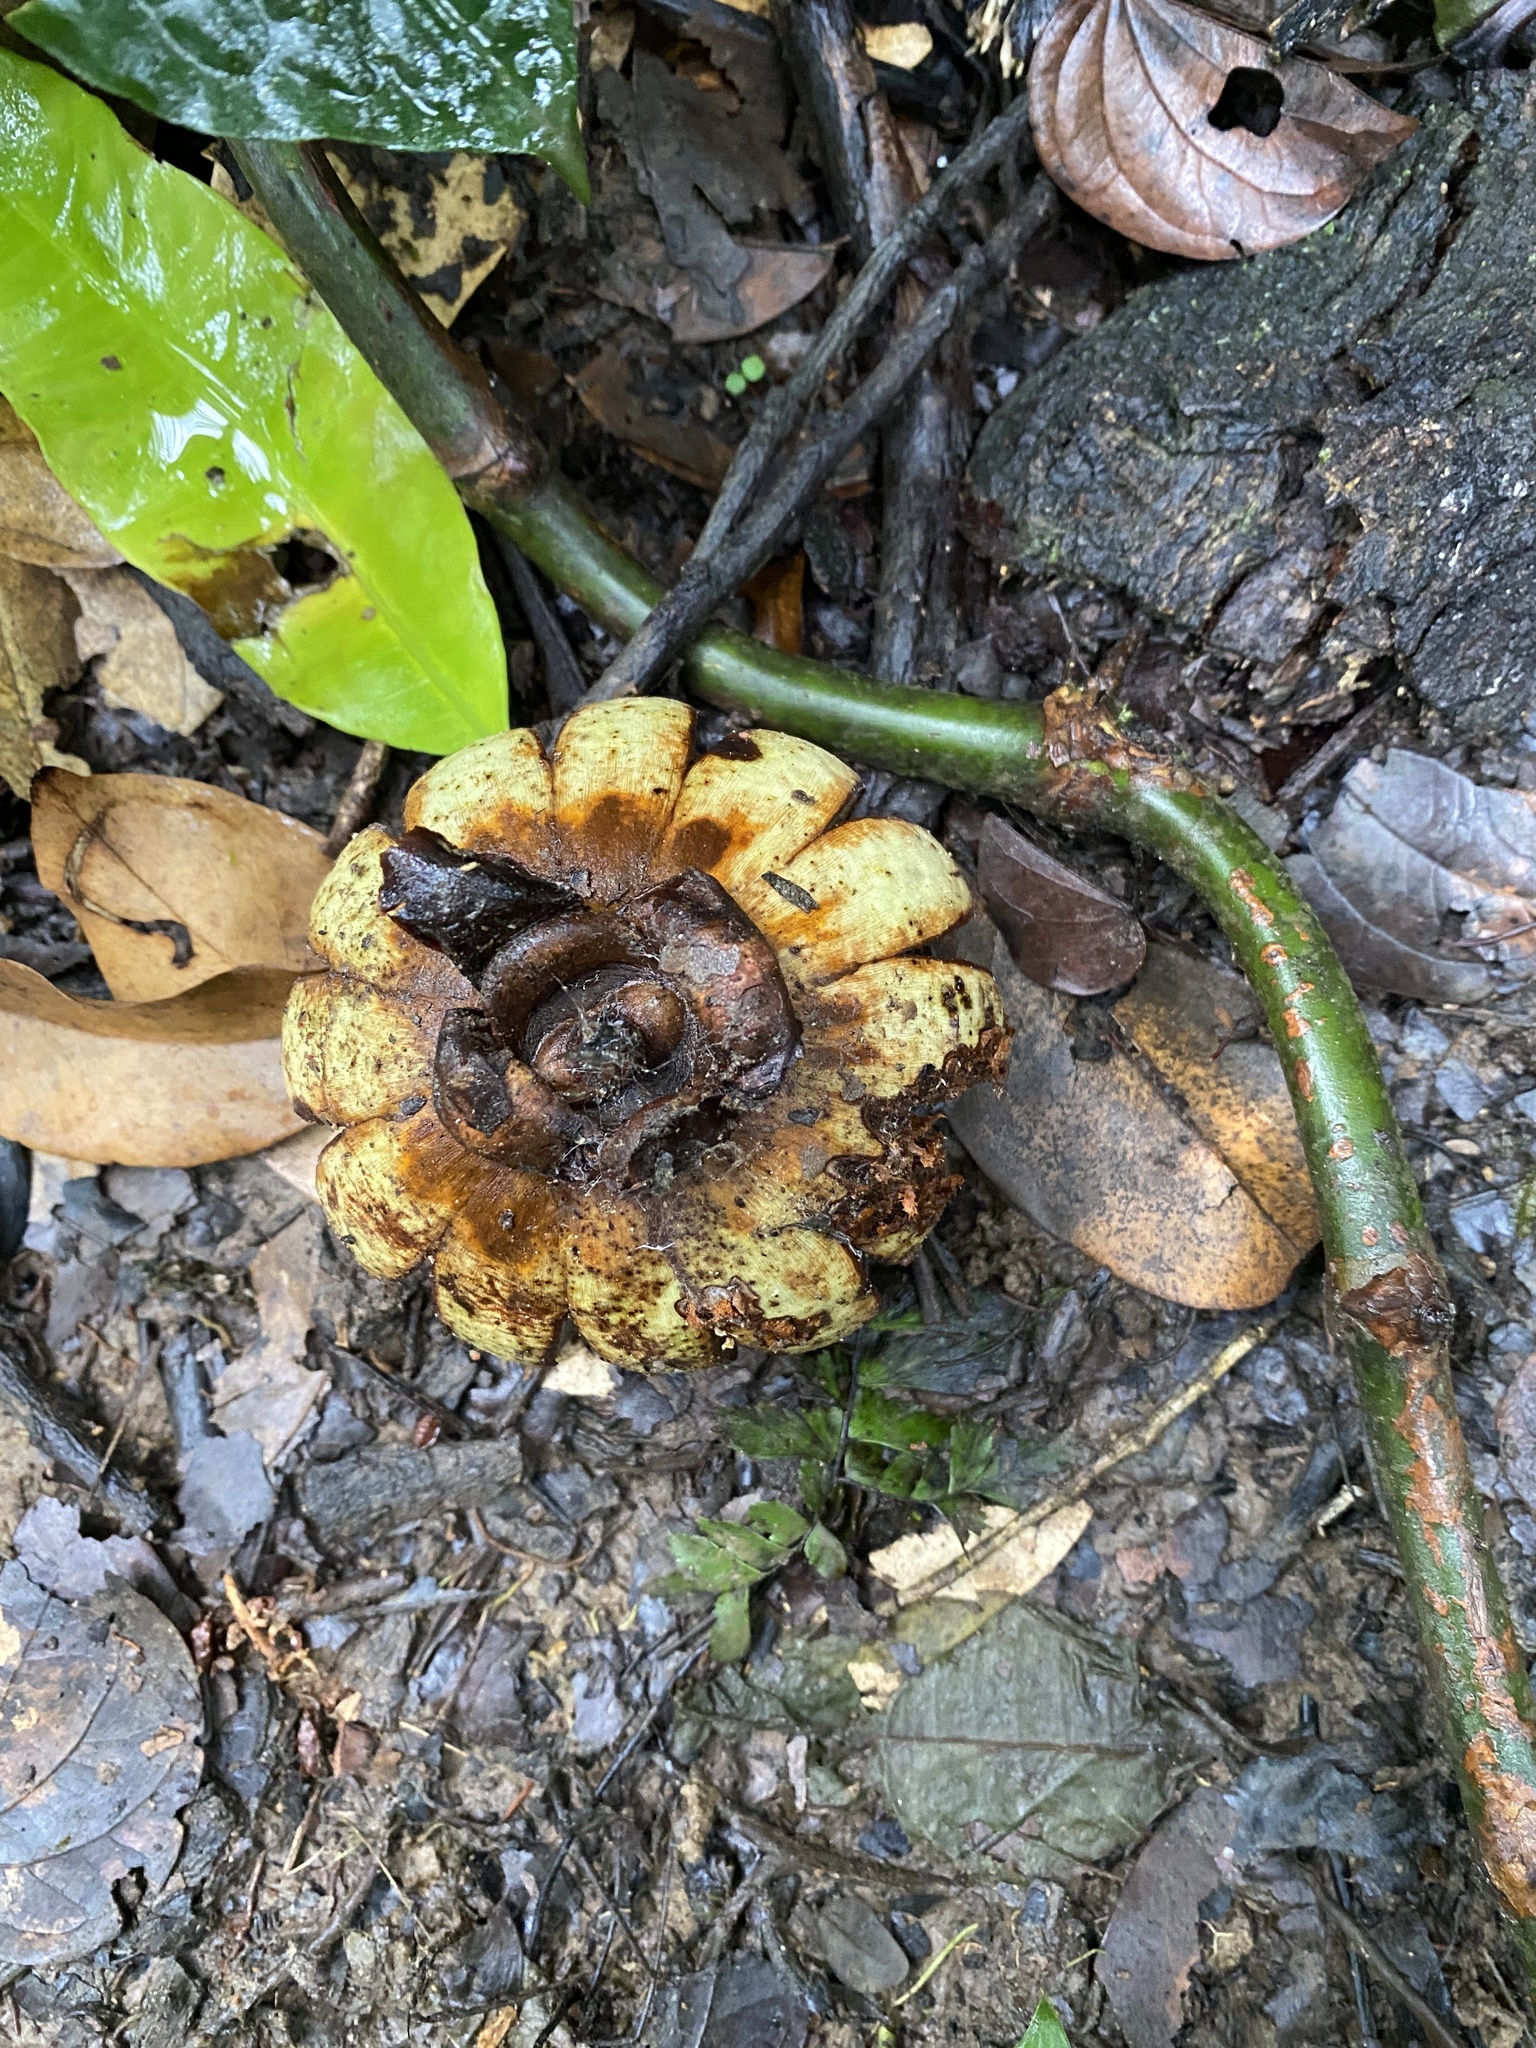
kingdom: Plantae
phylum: Tracheophyta
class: Magnoliopsida
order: Malpighiales
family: Clusiaceae
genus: Clusia
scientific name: Clusia rosea
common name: Scotch attorney
